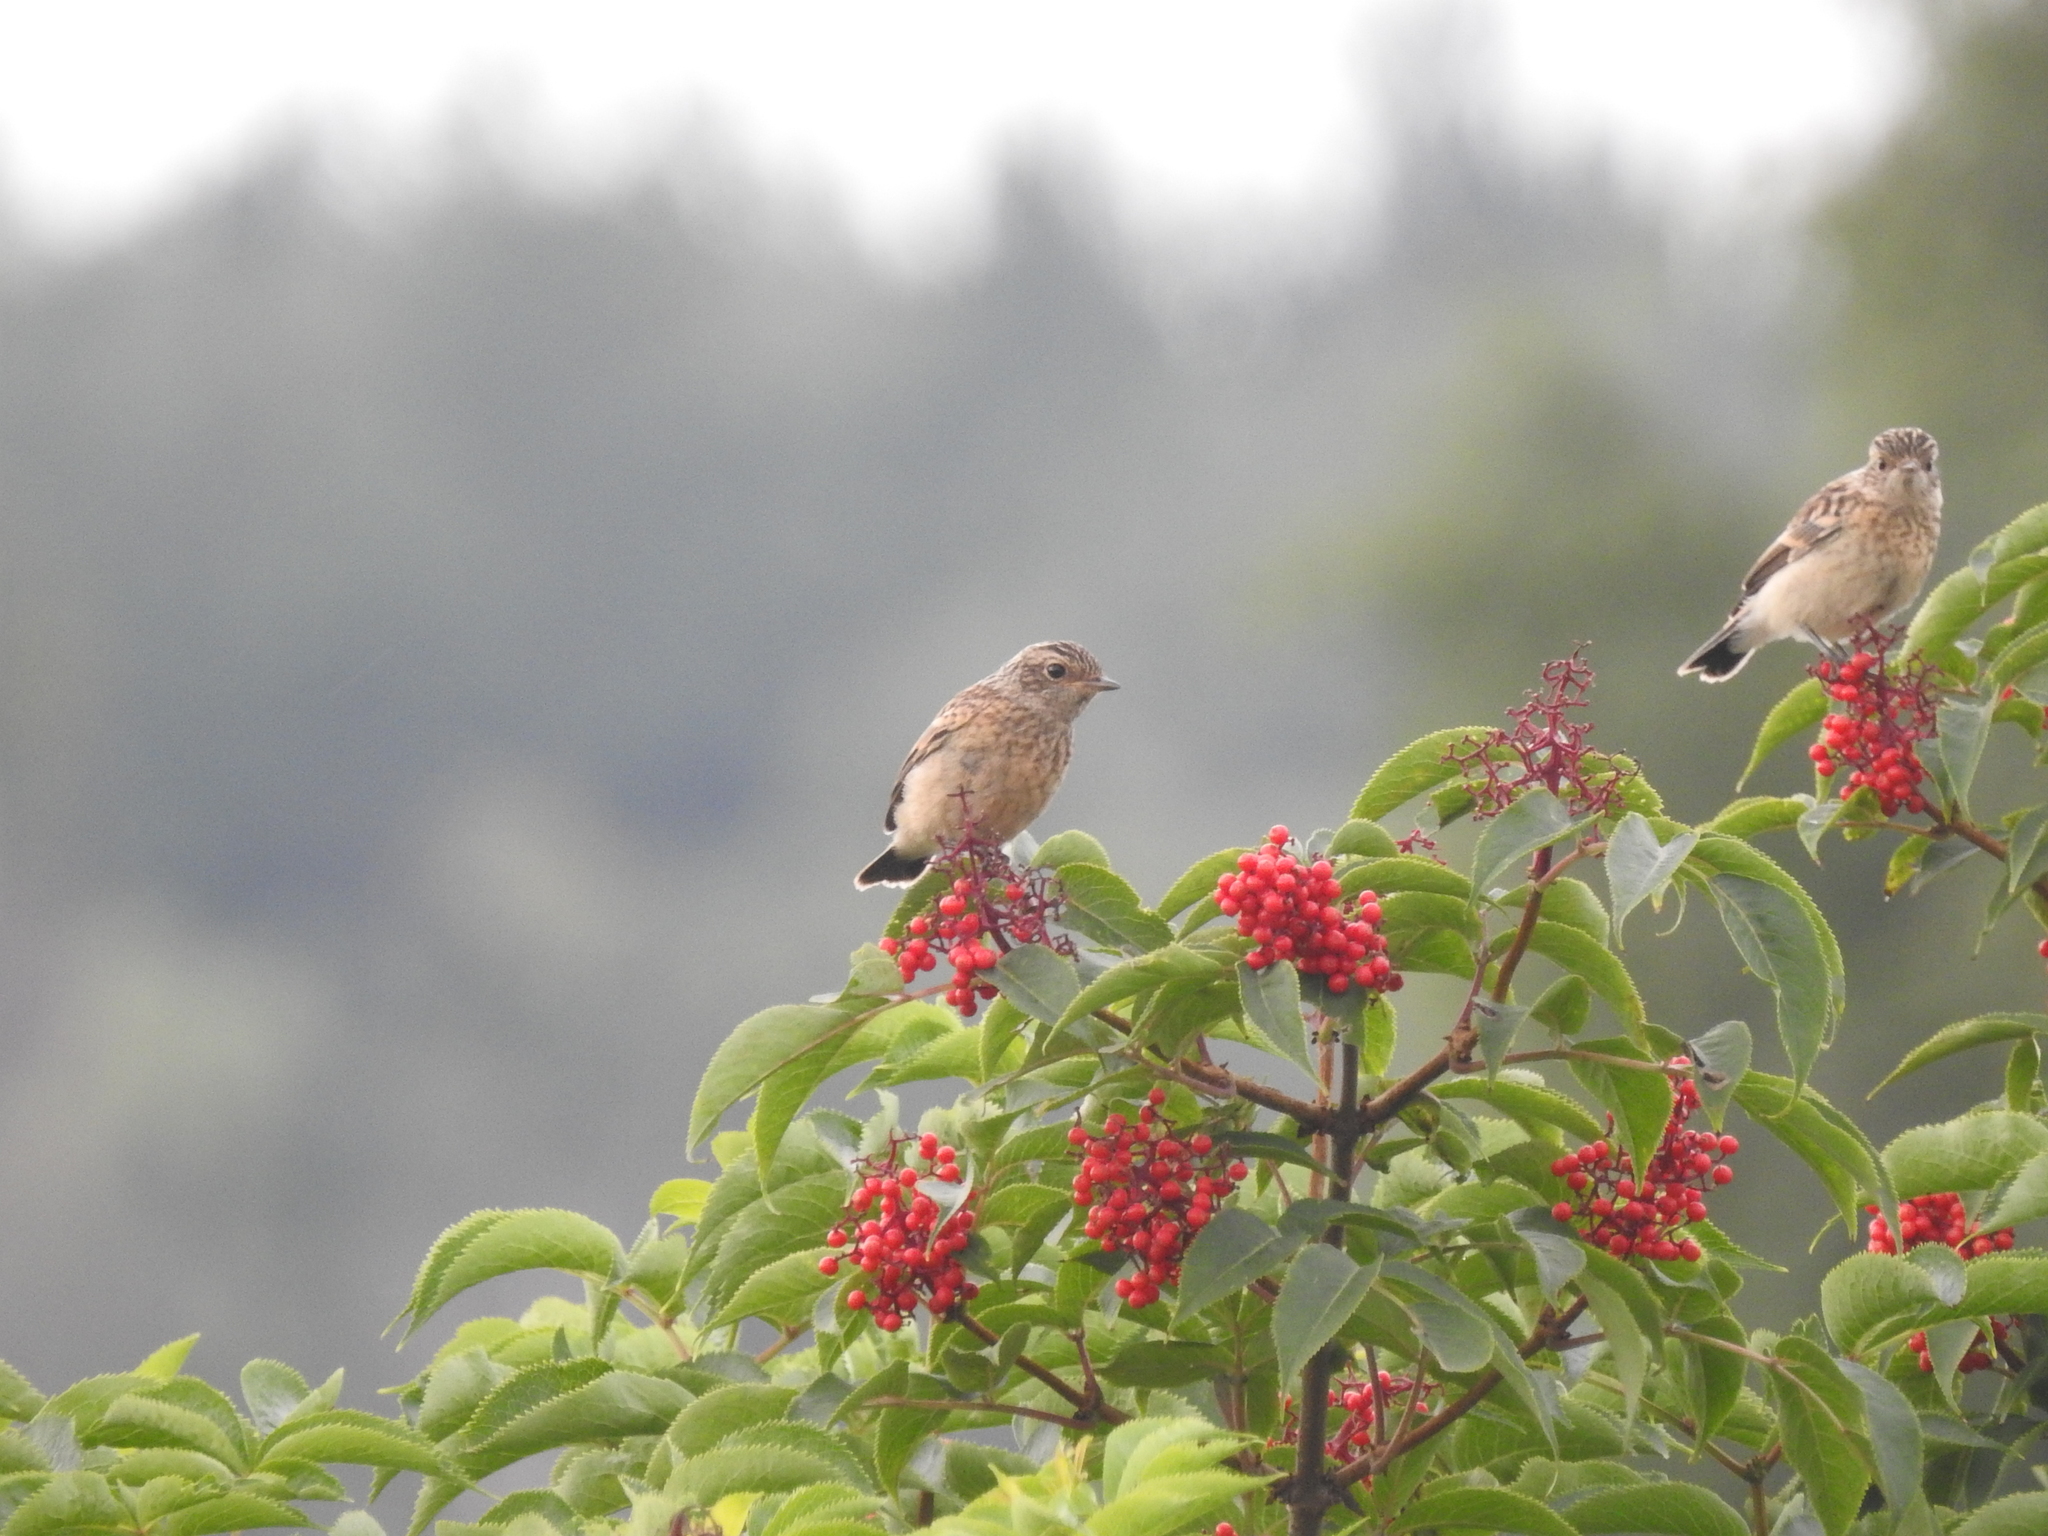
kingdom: Animalia
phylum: Chordata
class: Aves
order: Passeriformes
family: Muscicapidae
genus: Saxicola
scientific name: Saxicola maurus
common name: Siberian stonechat
